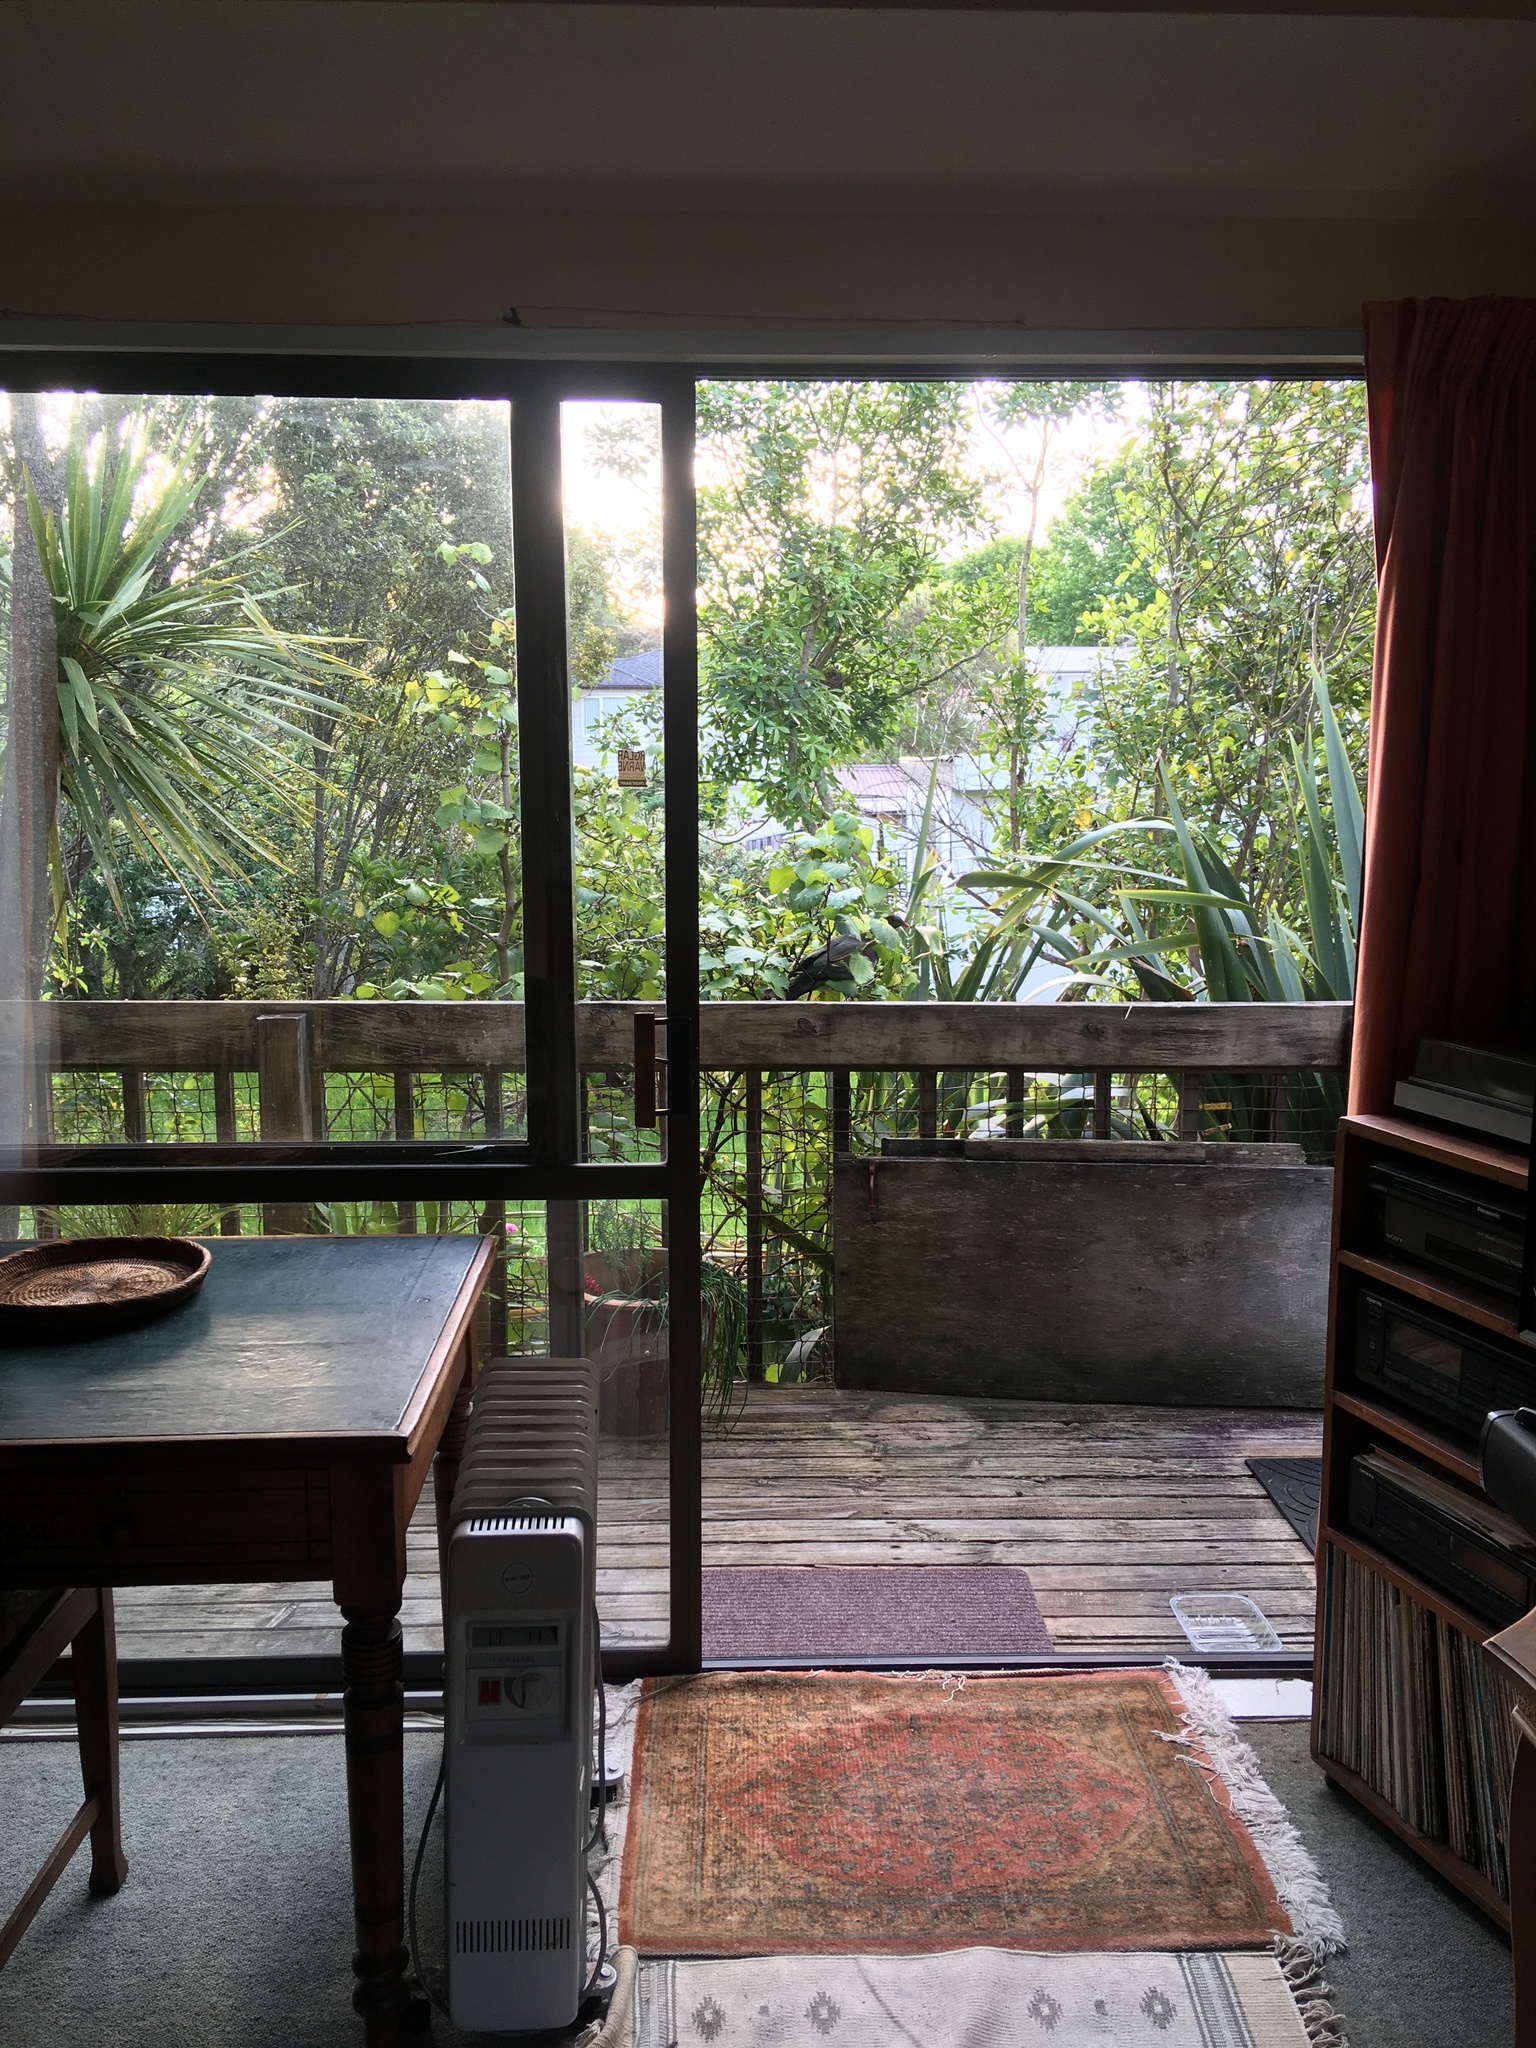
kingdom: Animalia
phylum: Chordata
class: Aves
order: Columbiformes
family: Columbidae
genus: Hemiphaga
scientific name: Hemiphaga novaeseelandiae
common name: New zealand pigeon
